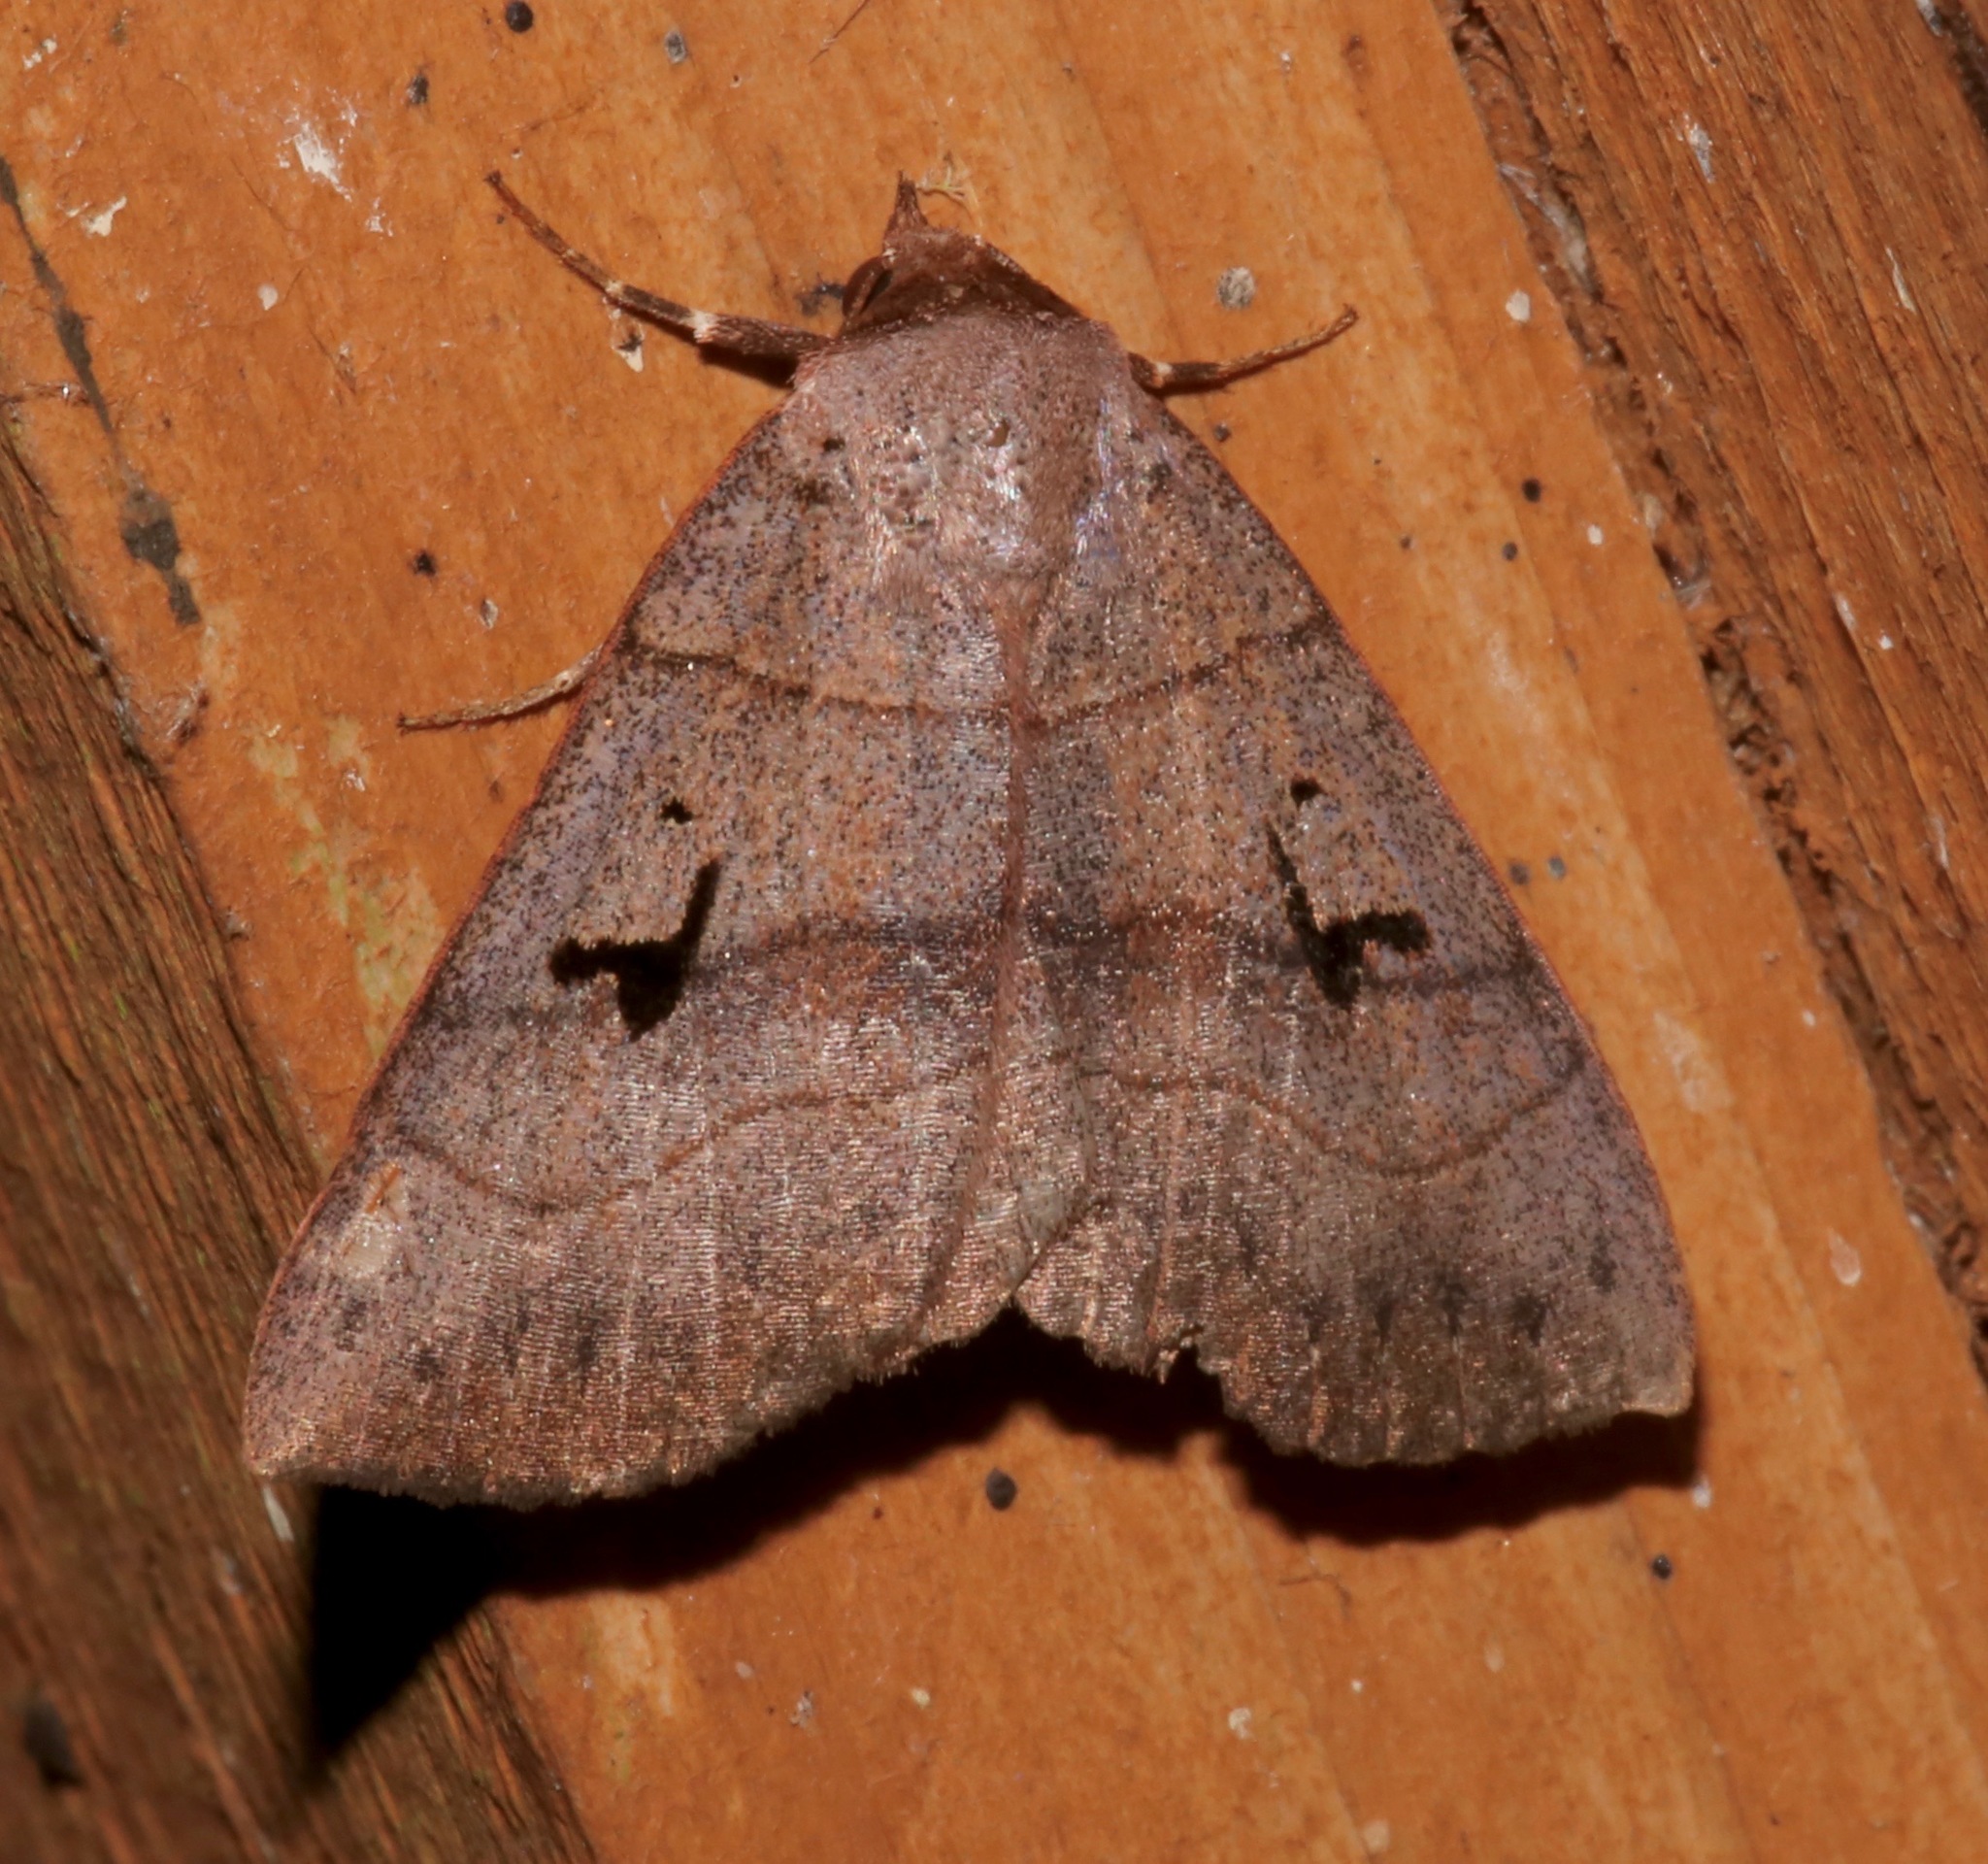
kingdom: Animalia
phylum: Arthropoda
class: Insecta
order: Lepidoptera
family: Erebidae
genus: Panopoda
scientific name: Panopoda carneicosta
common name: Brown panopoda moth
